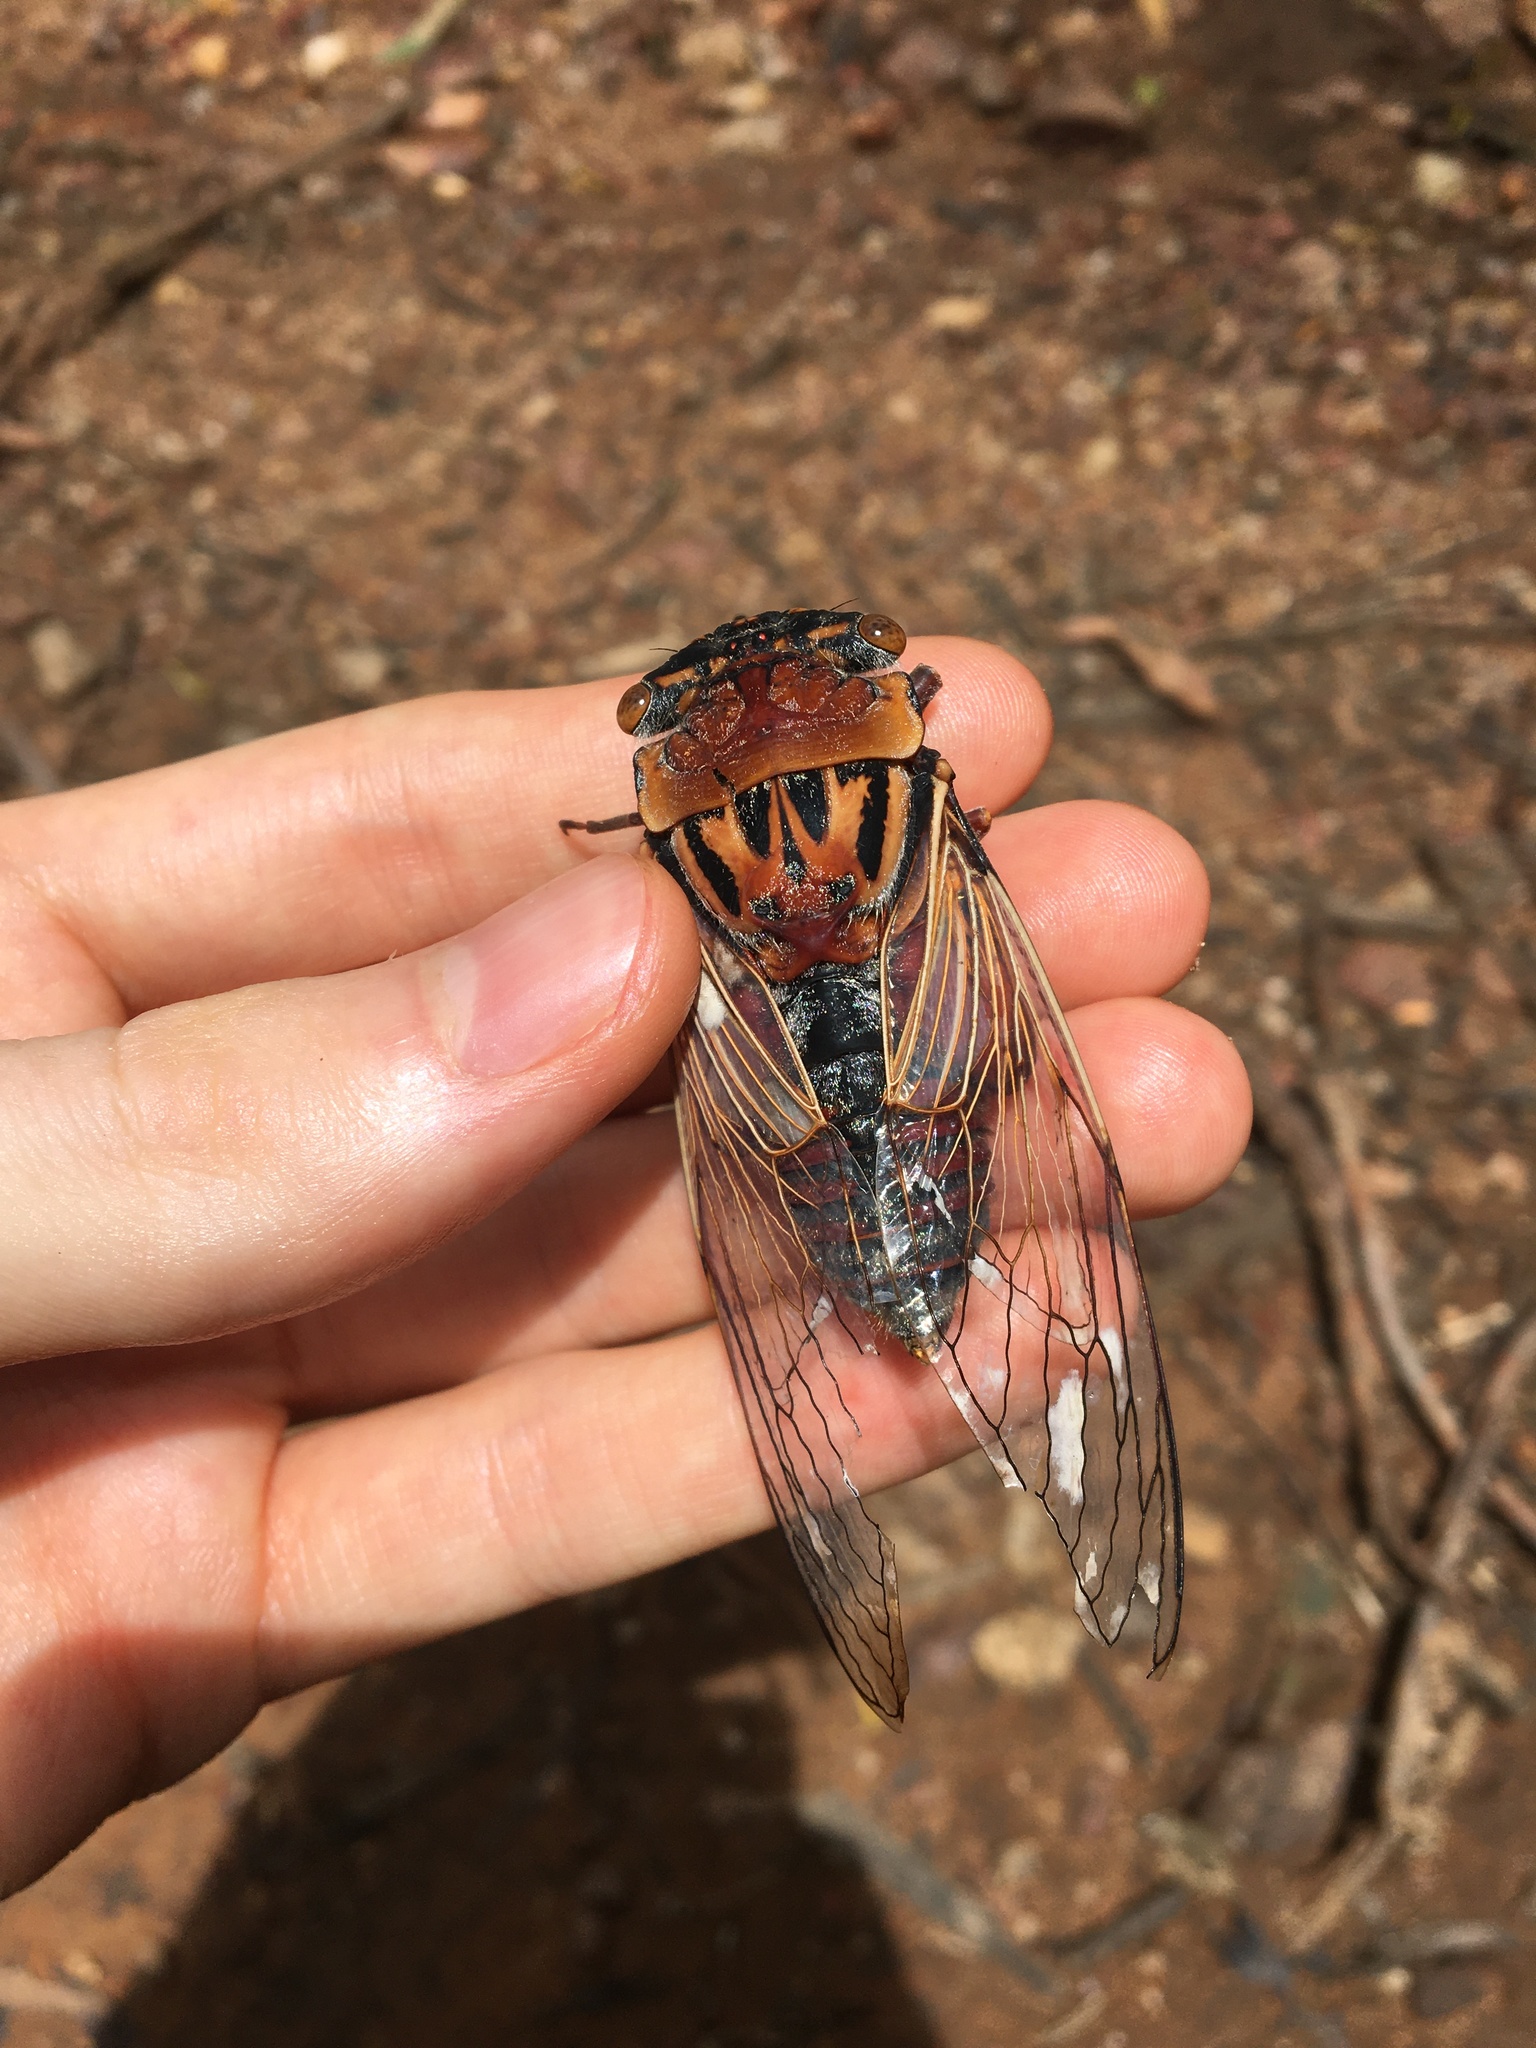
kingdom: Animalia
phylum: Arthropoda
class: Insecta
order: Hemiptera
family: Cicadidae
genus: Thopha
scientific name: Thopha saccata
